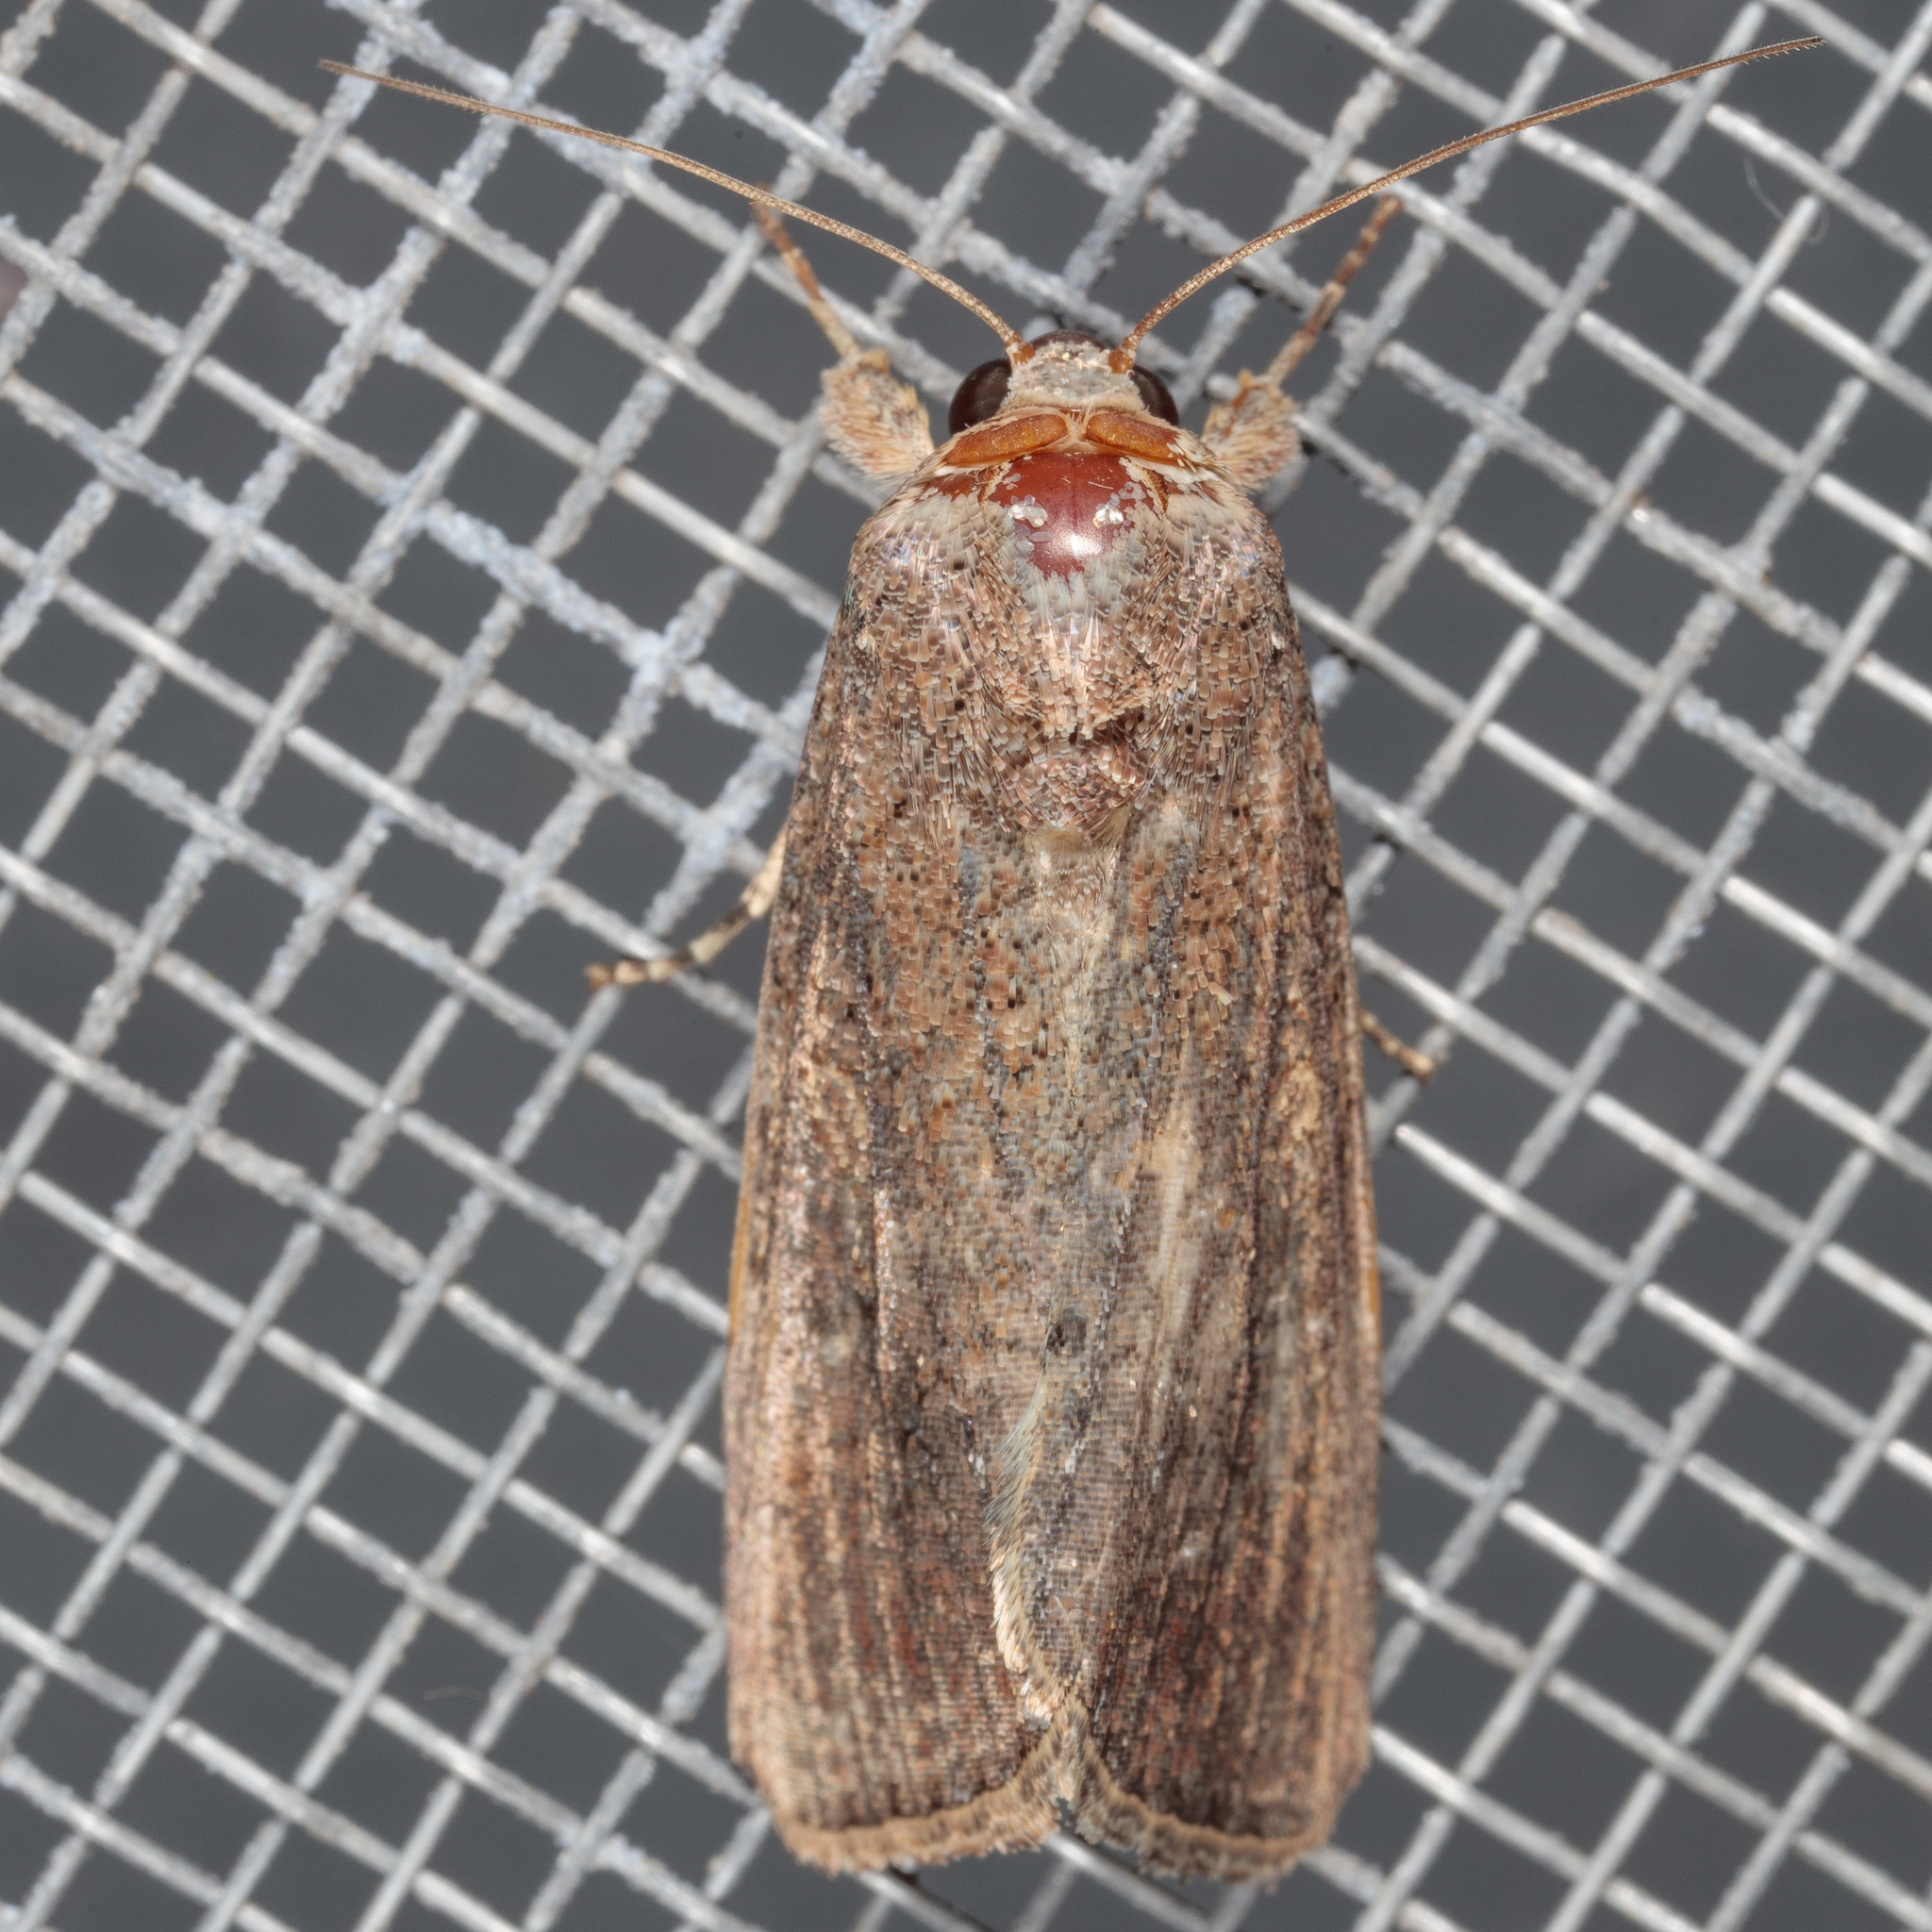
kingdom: Animalia
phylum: Arthropoda
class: Insecta
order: Lepidoptera
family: Noctuidae
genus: Spodoptera
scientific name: Spodoptera frugiperda
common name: Fall armyworm
